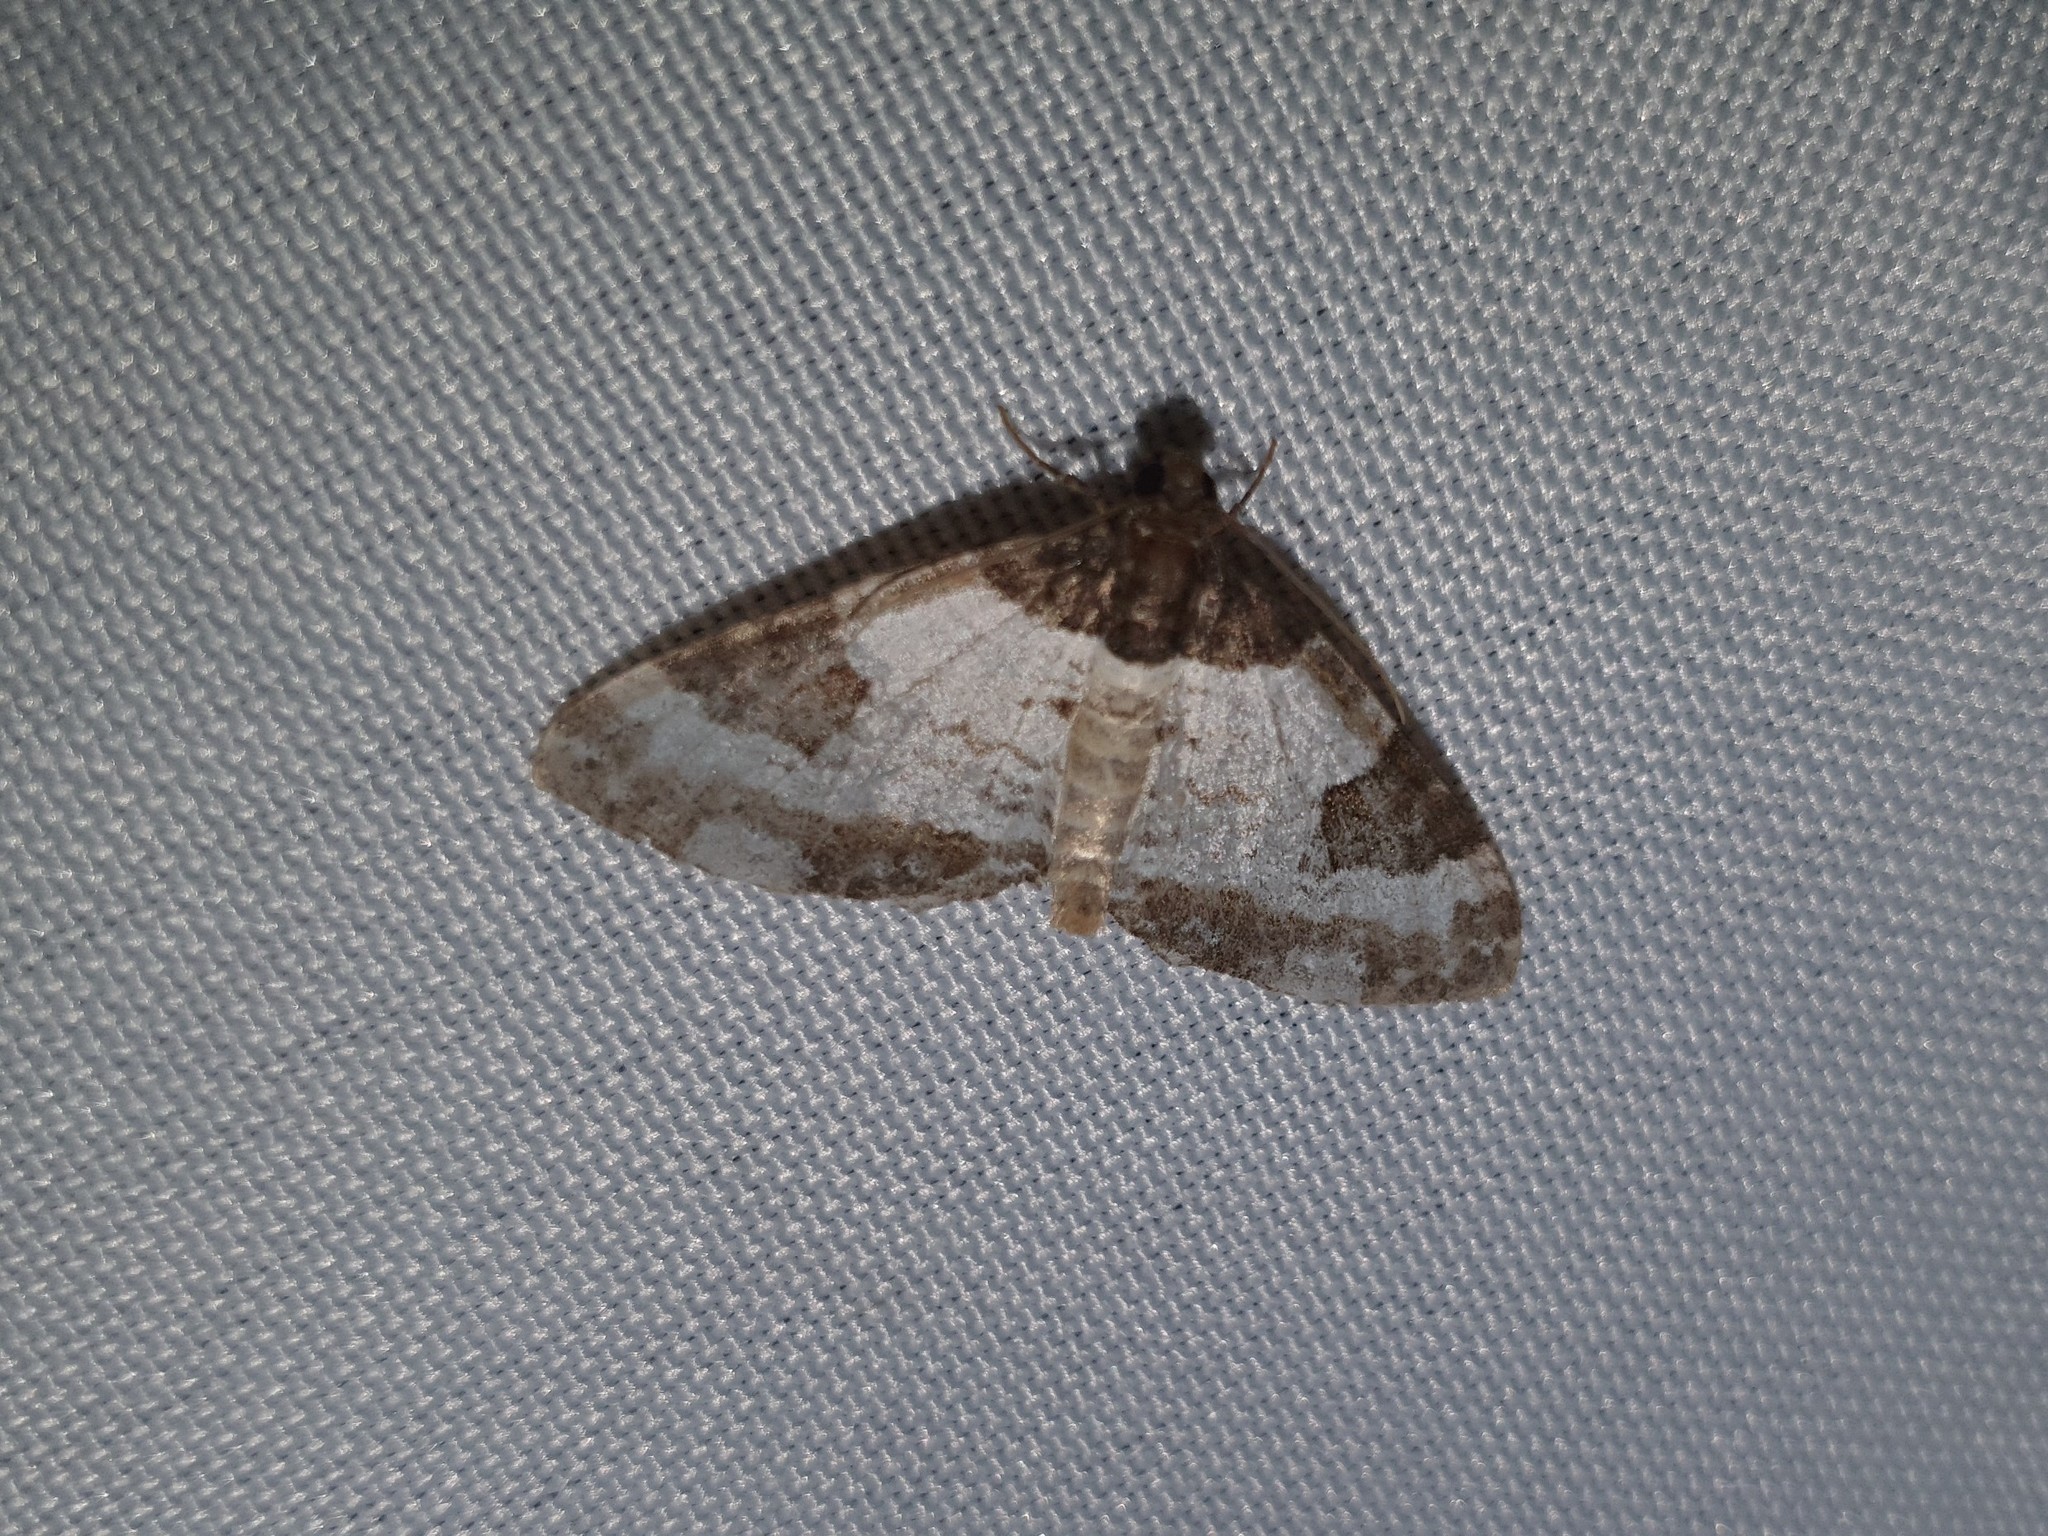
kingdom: Animalia
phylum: Arthropoda
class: Insecta
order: Lepidoptera
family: Geometridae
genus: Melanthia
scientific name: Melanthia procellata
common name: Pretty chalk carpet
